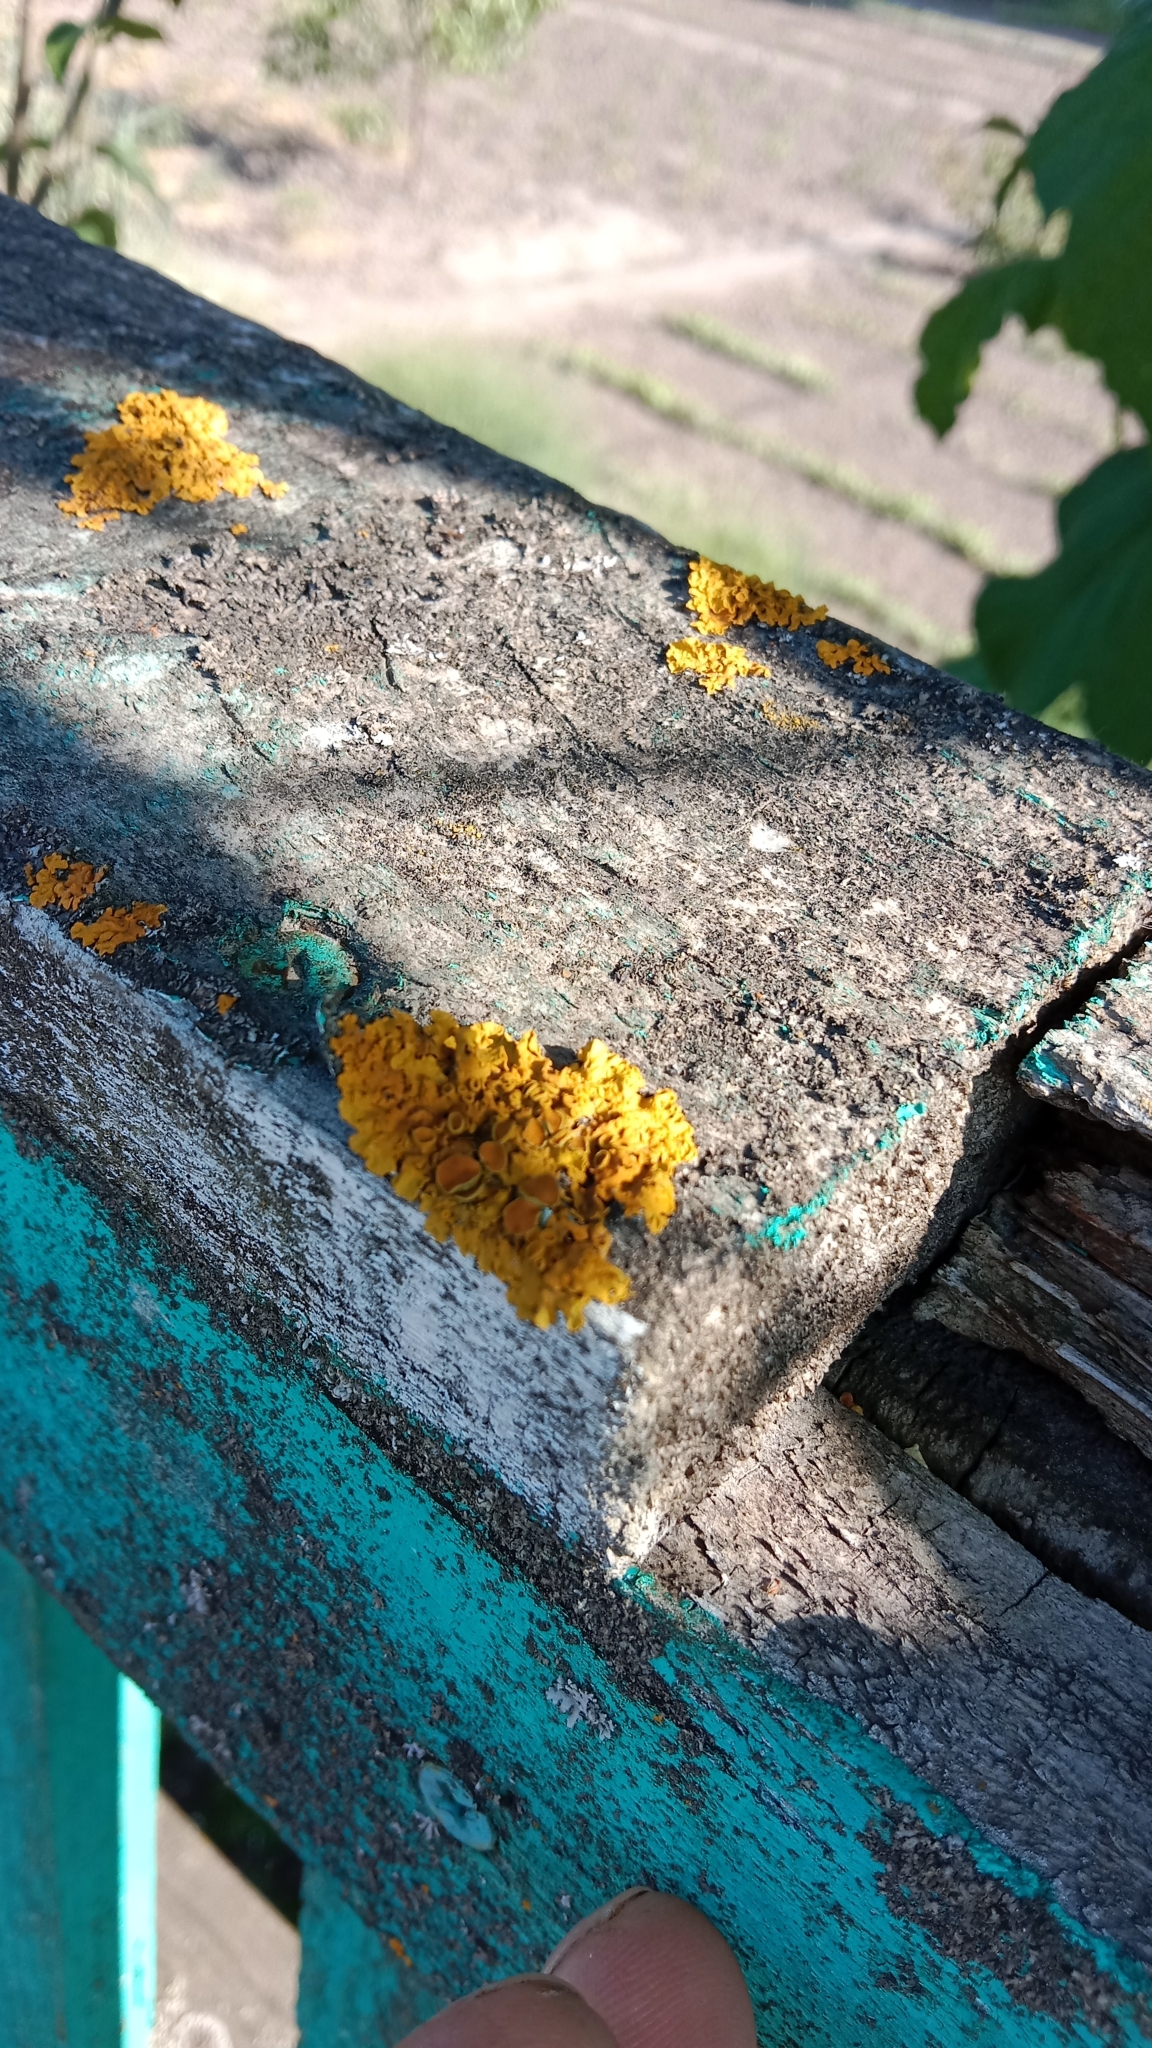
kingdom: Fungi
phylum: Ascomycota
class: Lecanoromycetes
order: Teloschistales
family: Teloschistaceae
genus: Xanthoria
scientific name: Xanthoria parietina
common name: Common orange lichen
